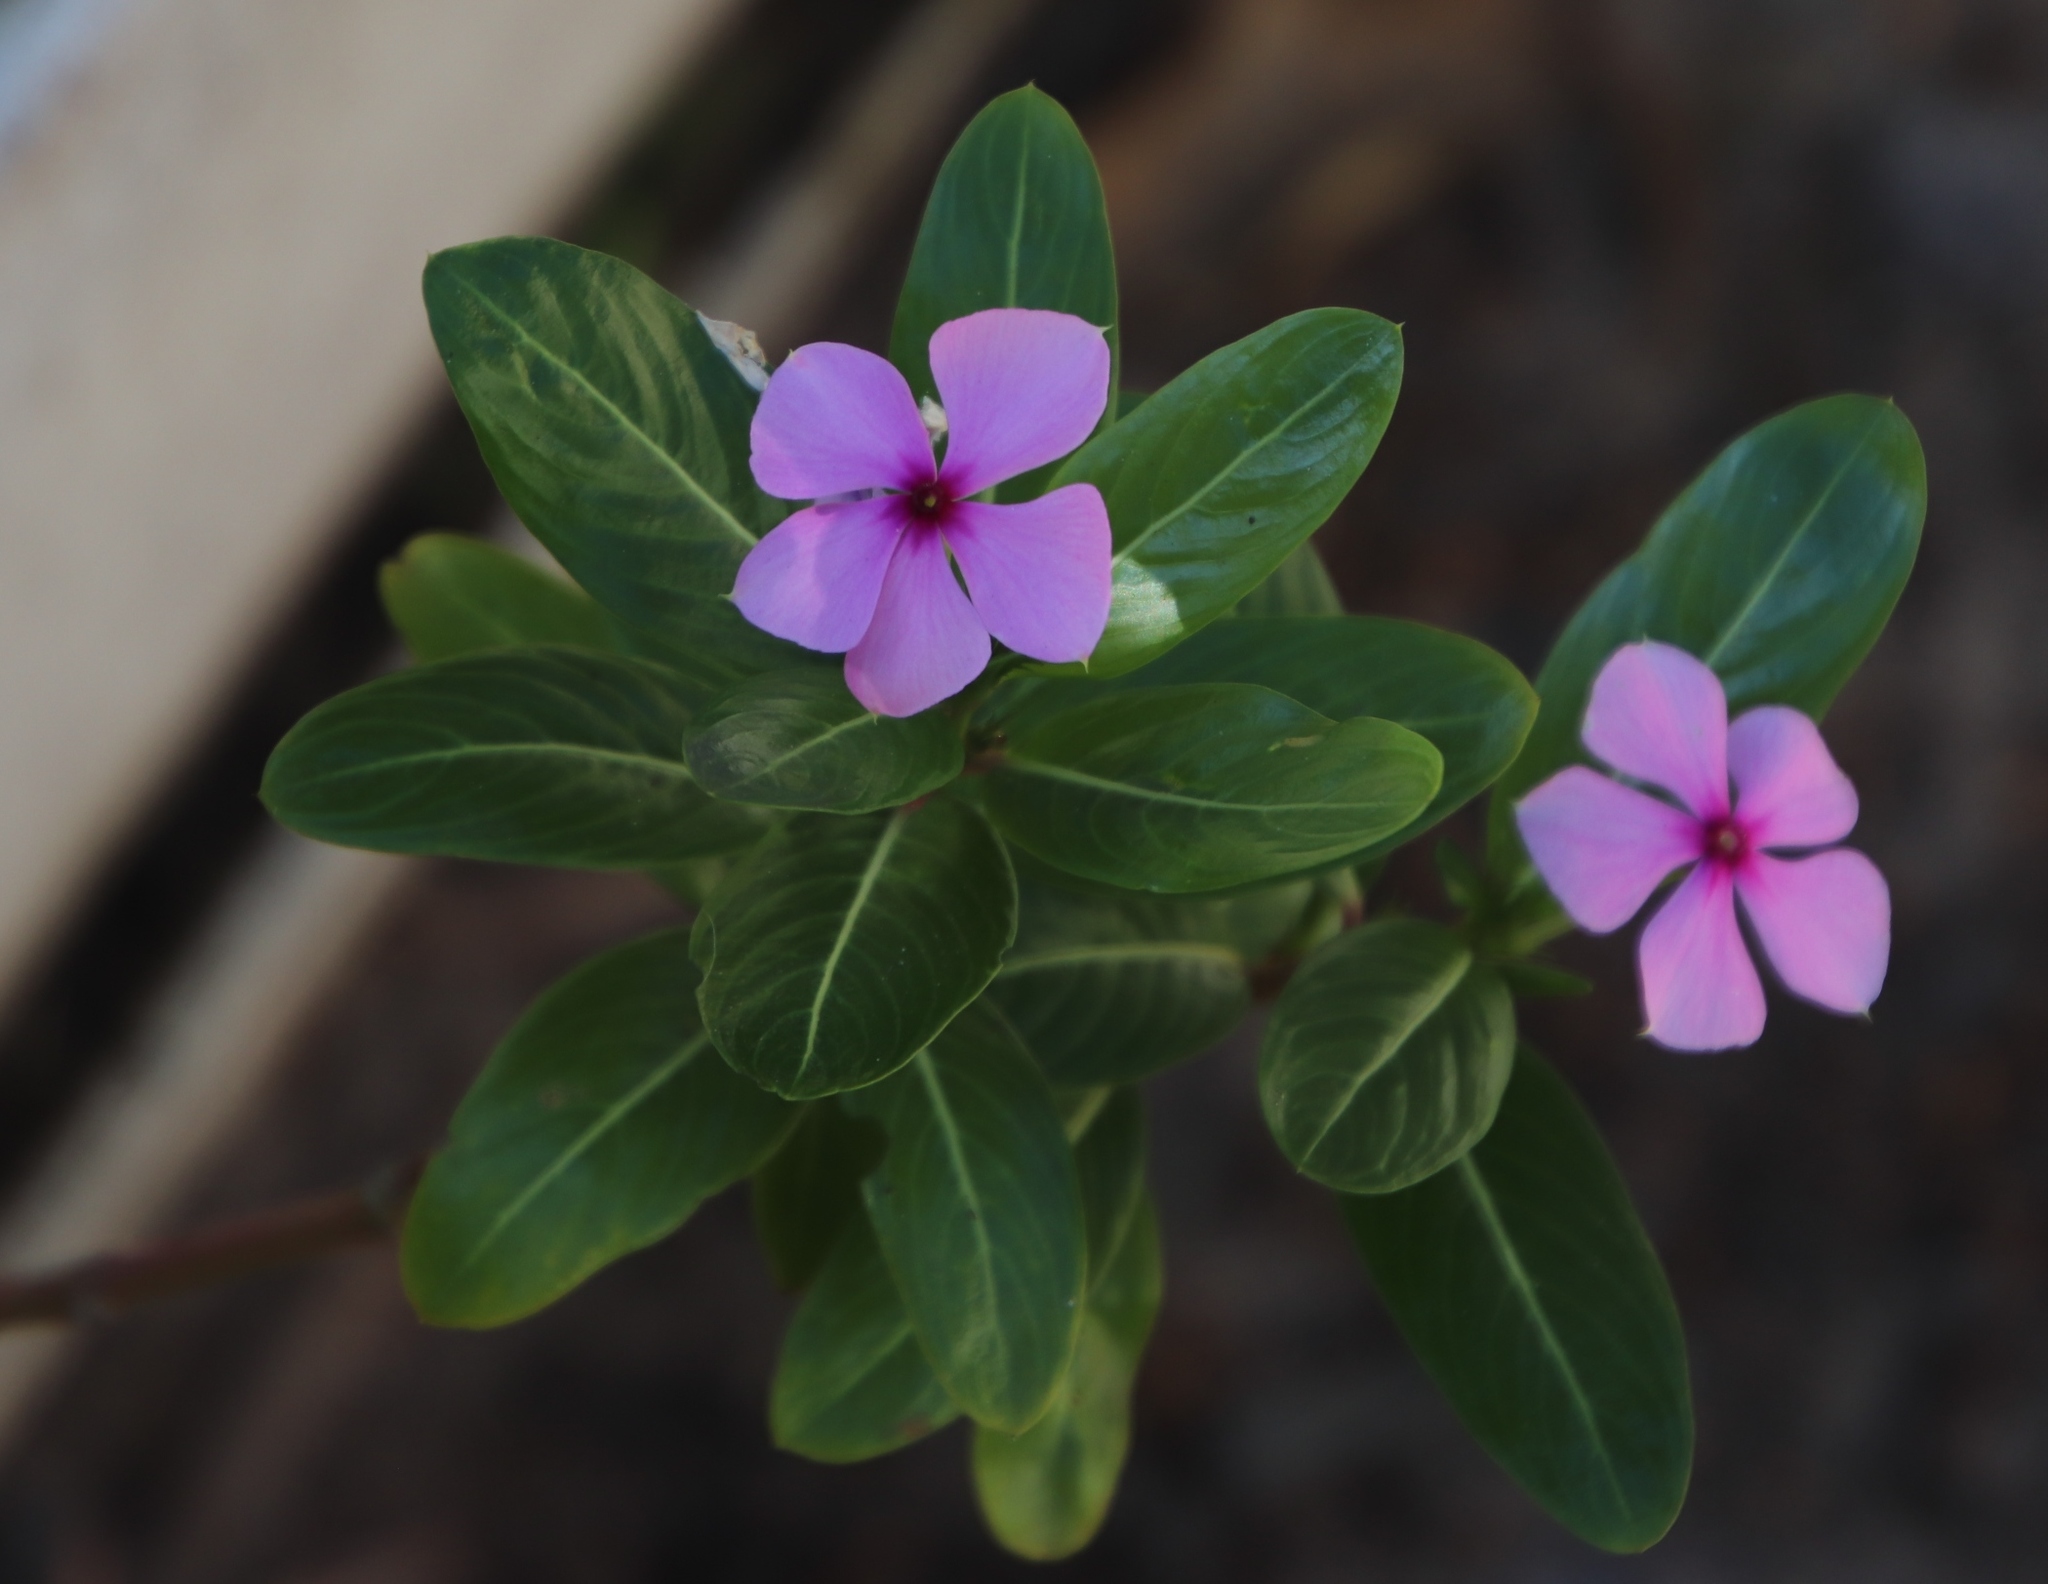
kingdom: Plantae
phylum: Tracheophyta
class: Magnoliopsida
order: Gentianales
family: Apocynaceae
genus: Catharanthus
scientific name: Catharanthus roseus
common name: Madagascar periwinkle
